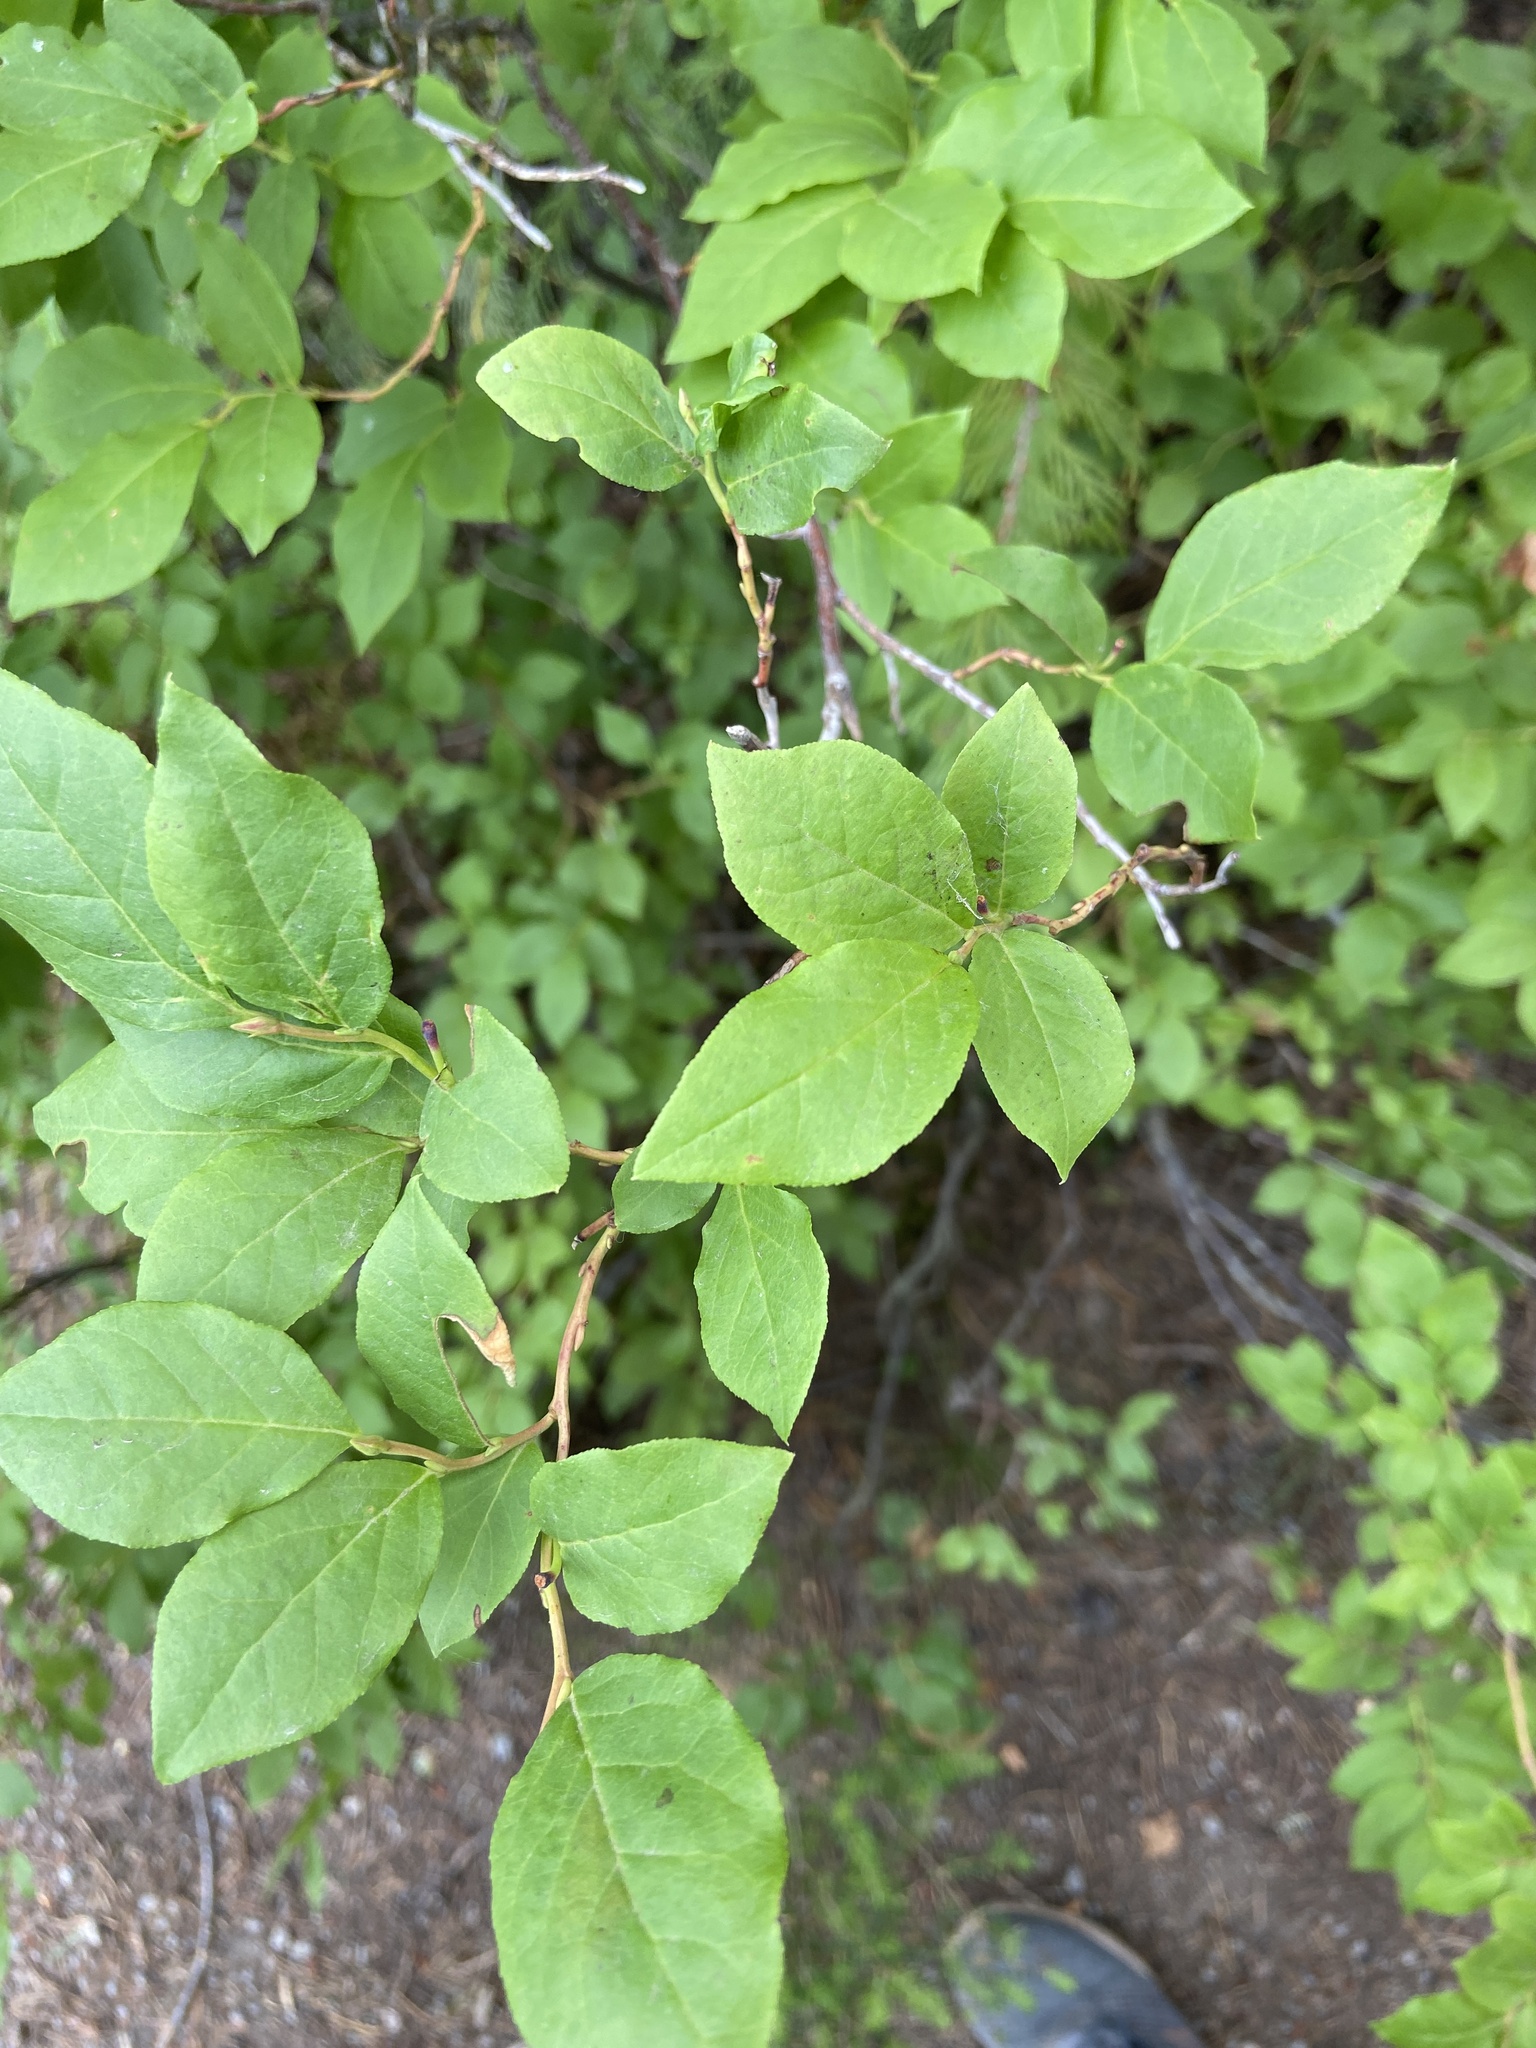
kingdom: Plantae
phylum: Tracheophyta
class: Magnoliopsida
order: Ericales
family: Ericaceae
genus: Vaccinium
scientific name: Vaccinium membranaceum
